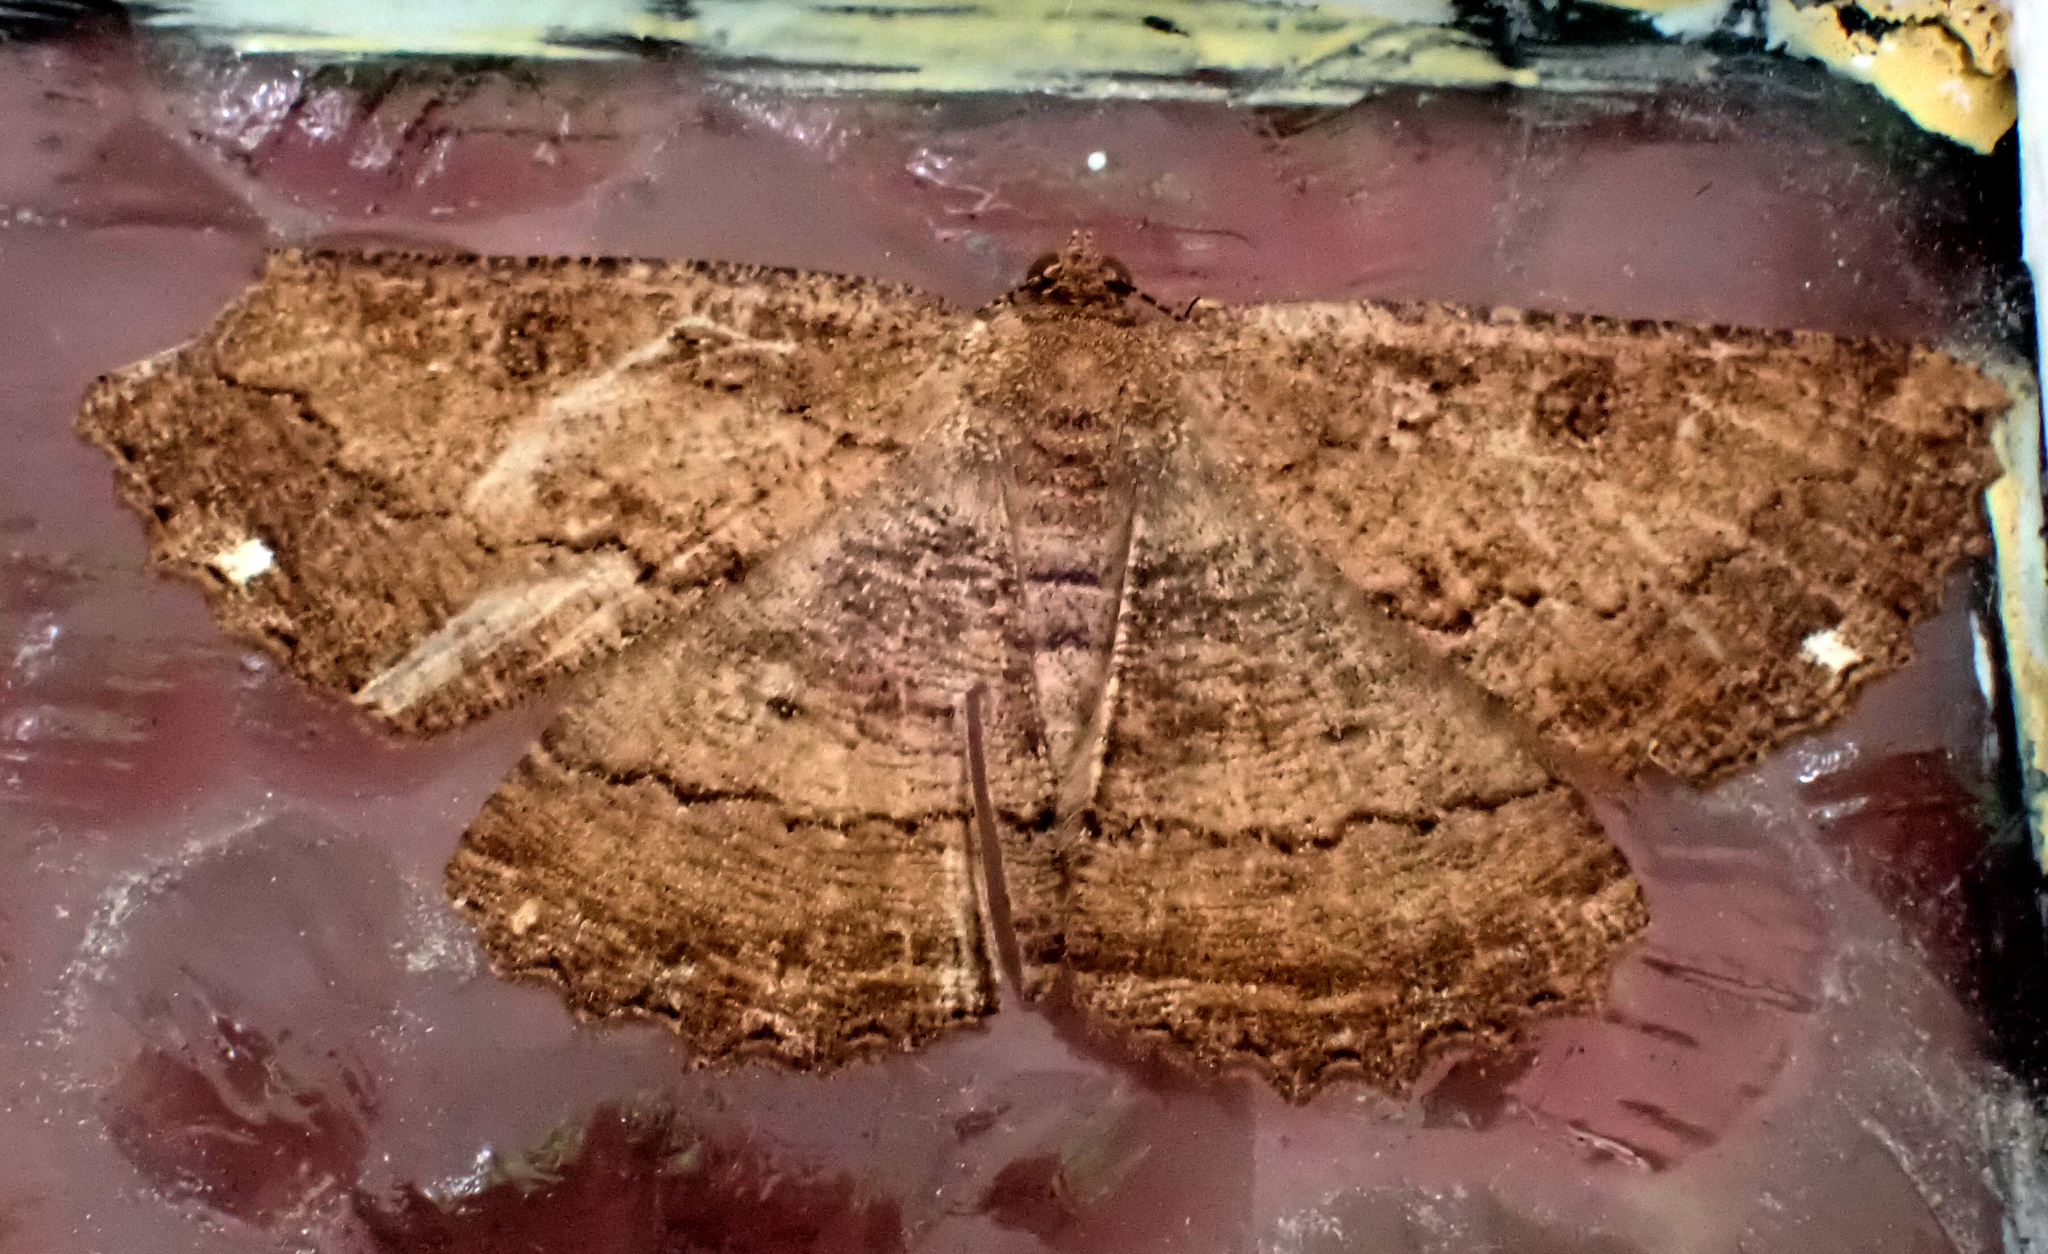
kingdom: Animalia
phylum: Arthropoda
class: Insecta
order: Lepidoptera
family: Geometridae
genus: Gellonia
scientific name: Gellonia dejectaria
